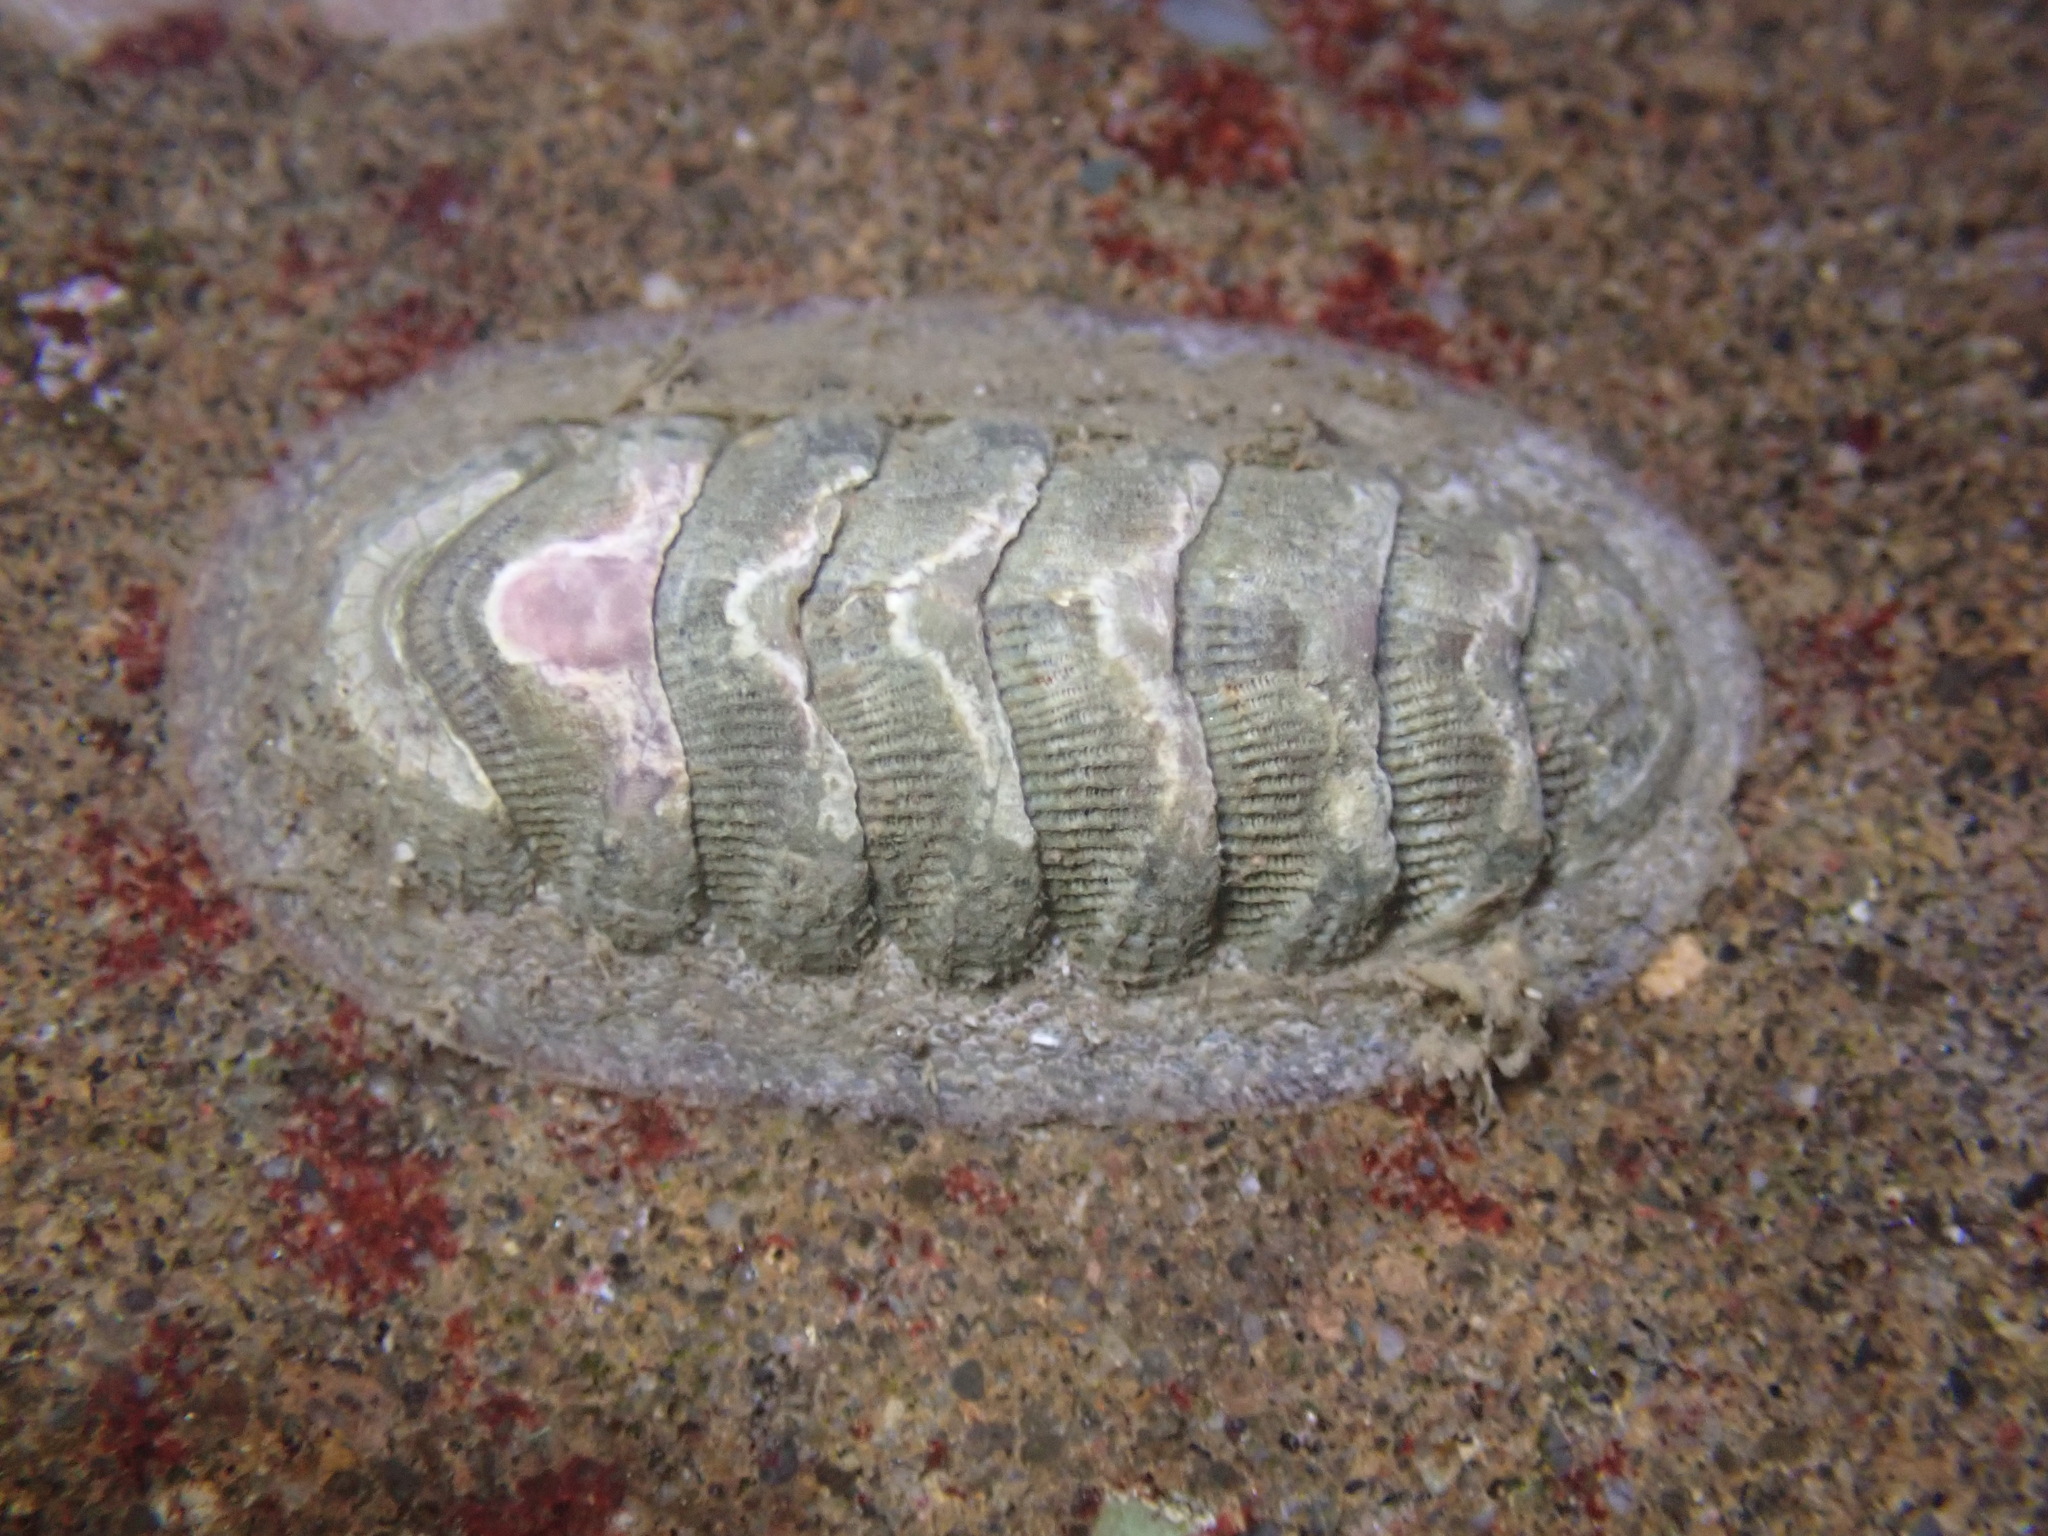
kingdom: Animalia
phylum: Mollusca
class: Polyplacophora
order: Chitonida
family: Ischnochitonidae
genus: Lepidozona
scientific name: Lepidozona cooperi
